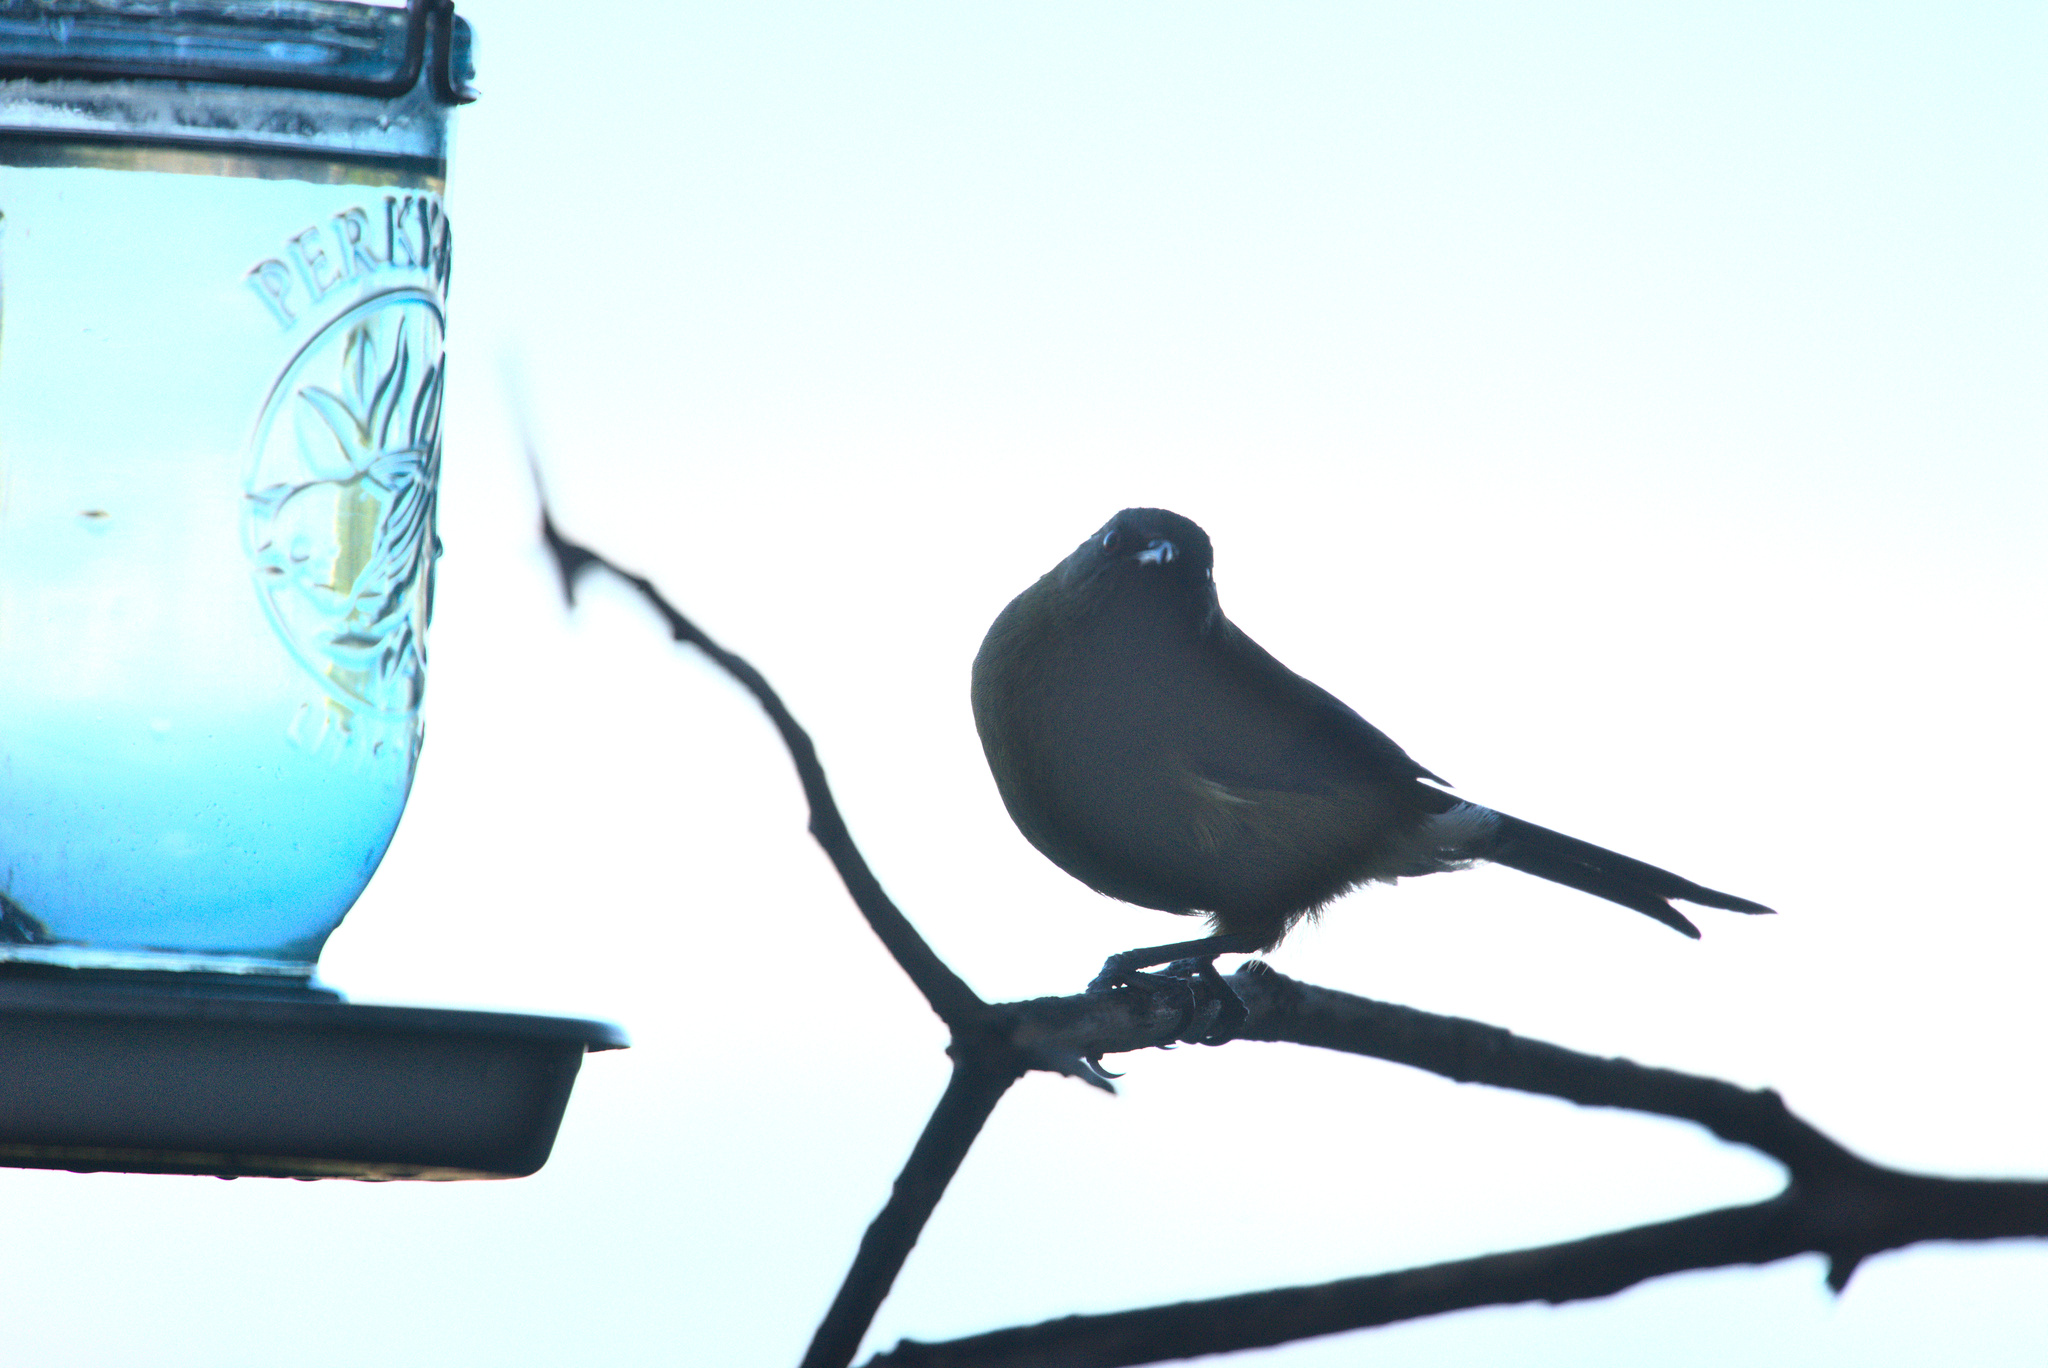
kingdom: Animalia
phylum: Chordata
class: Aves
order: Passeriformes
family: Meliphagidae
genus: Anthornis
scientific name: Anthornis melanura
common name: New zealand bellbird
